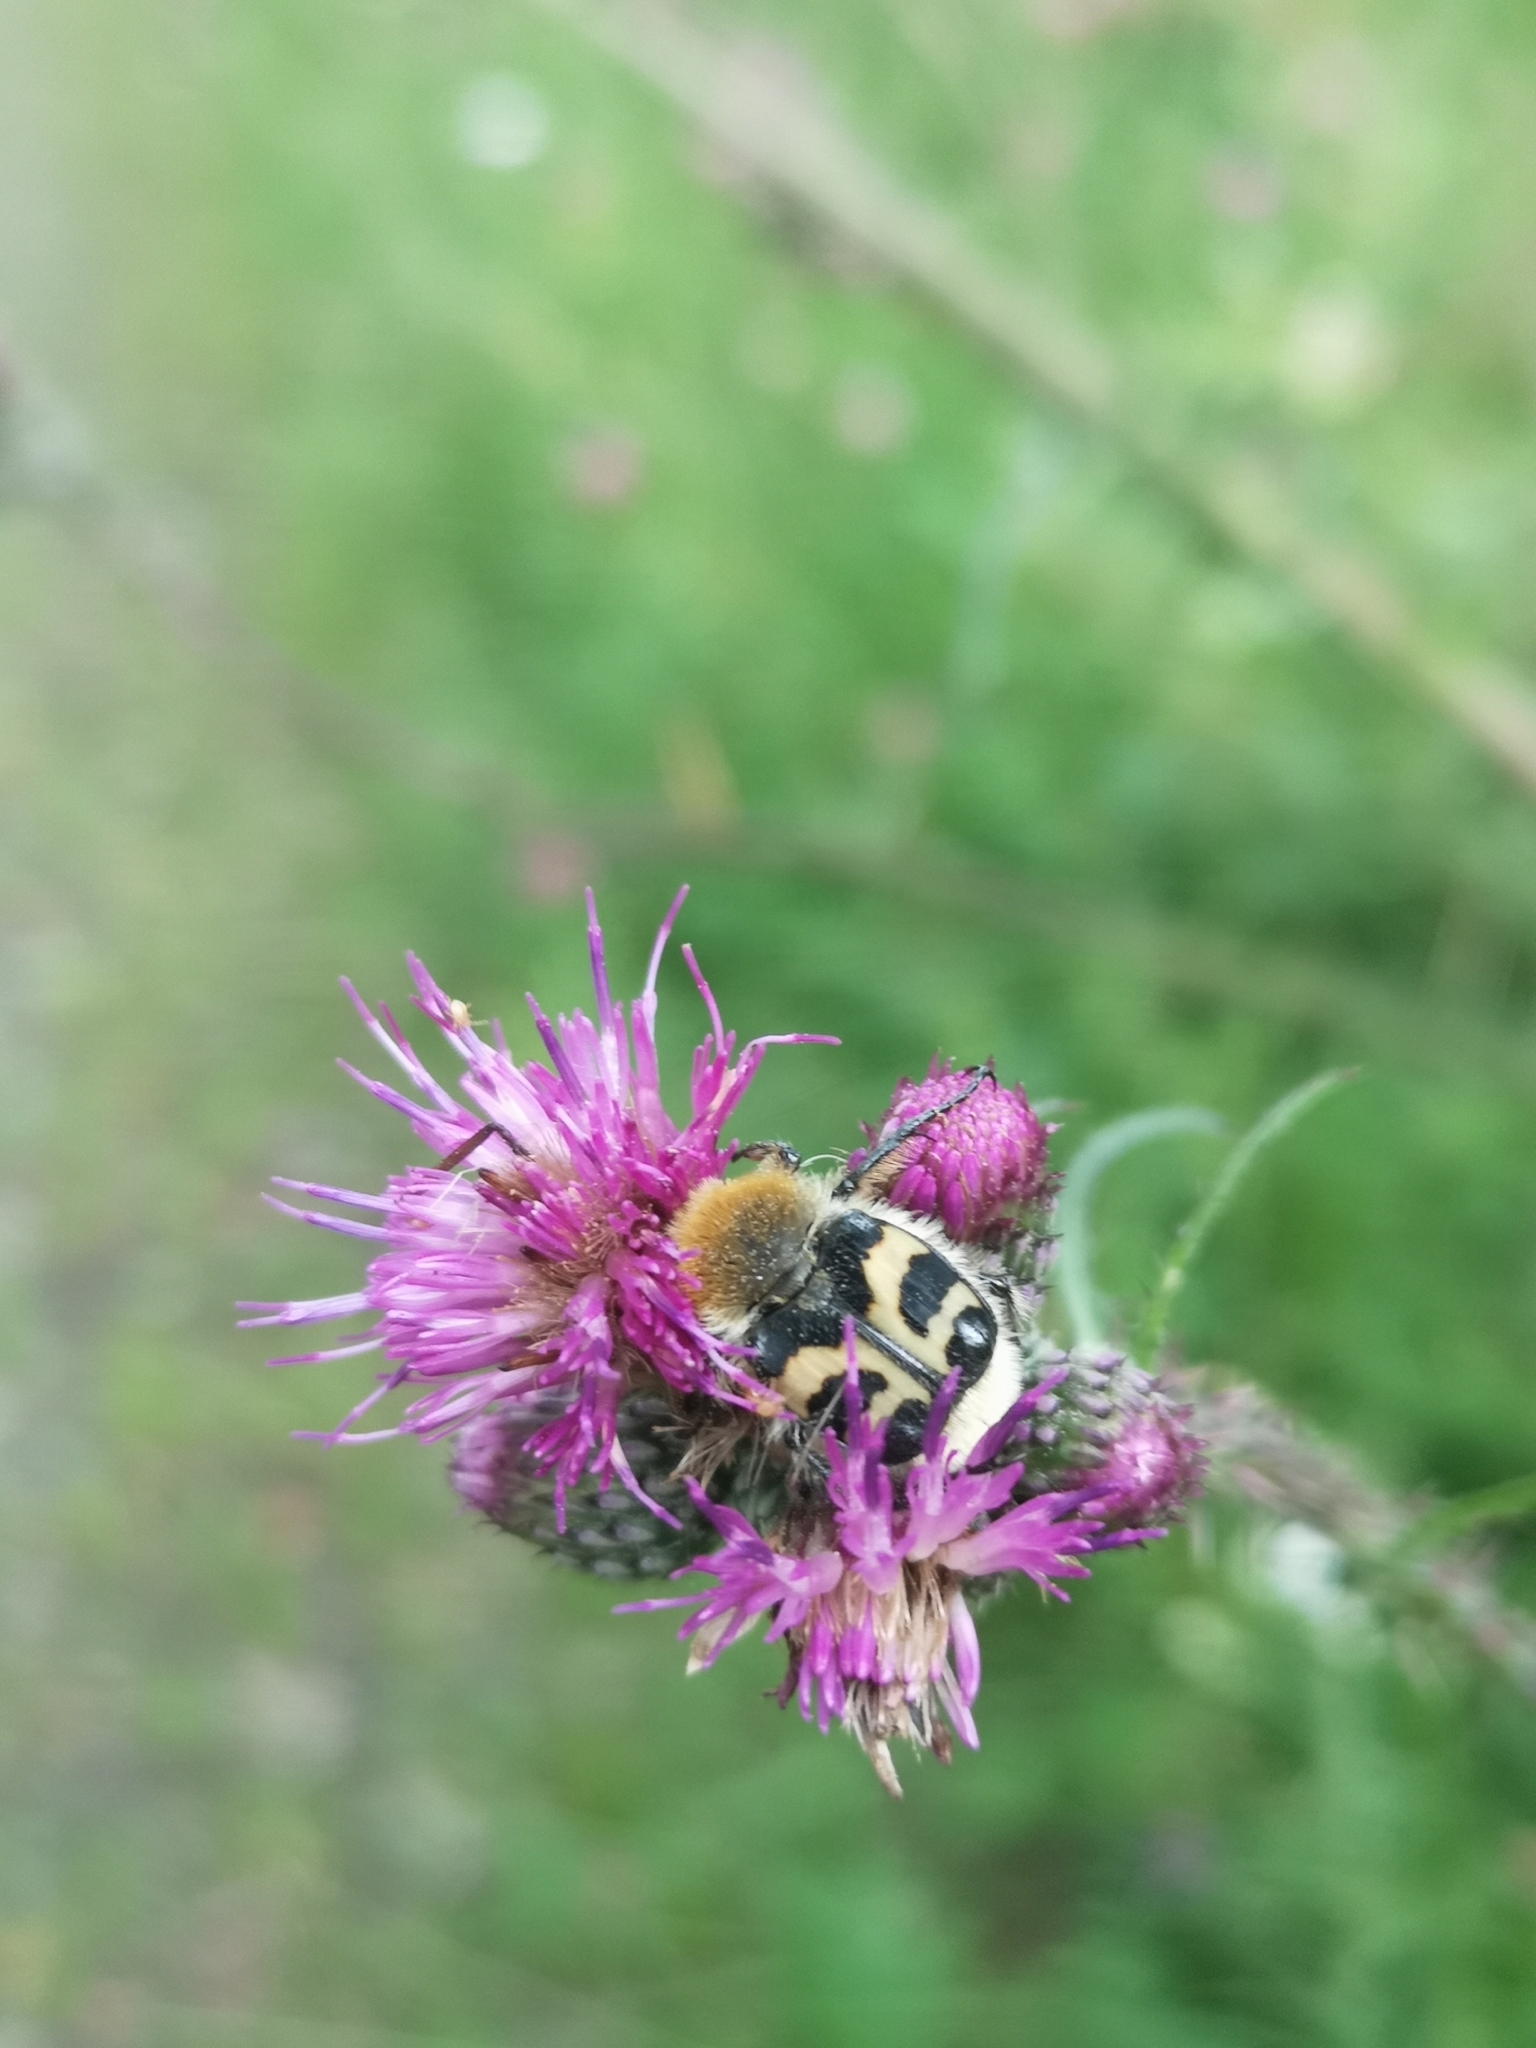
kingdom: Animalia
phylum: Arthropoda
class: Insecta
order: Coleoptera
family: Scarabaeidae
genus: Trichius
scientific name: Trichius fasciatus
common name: Bee beetle
